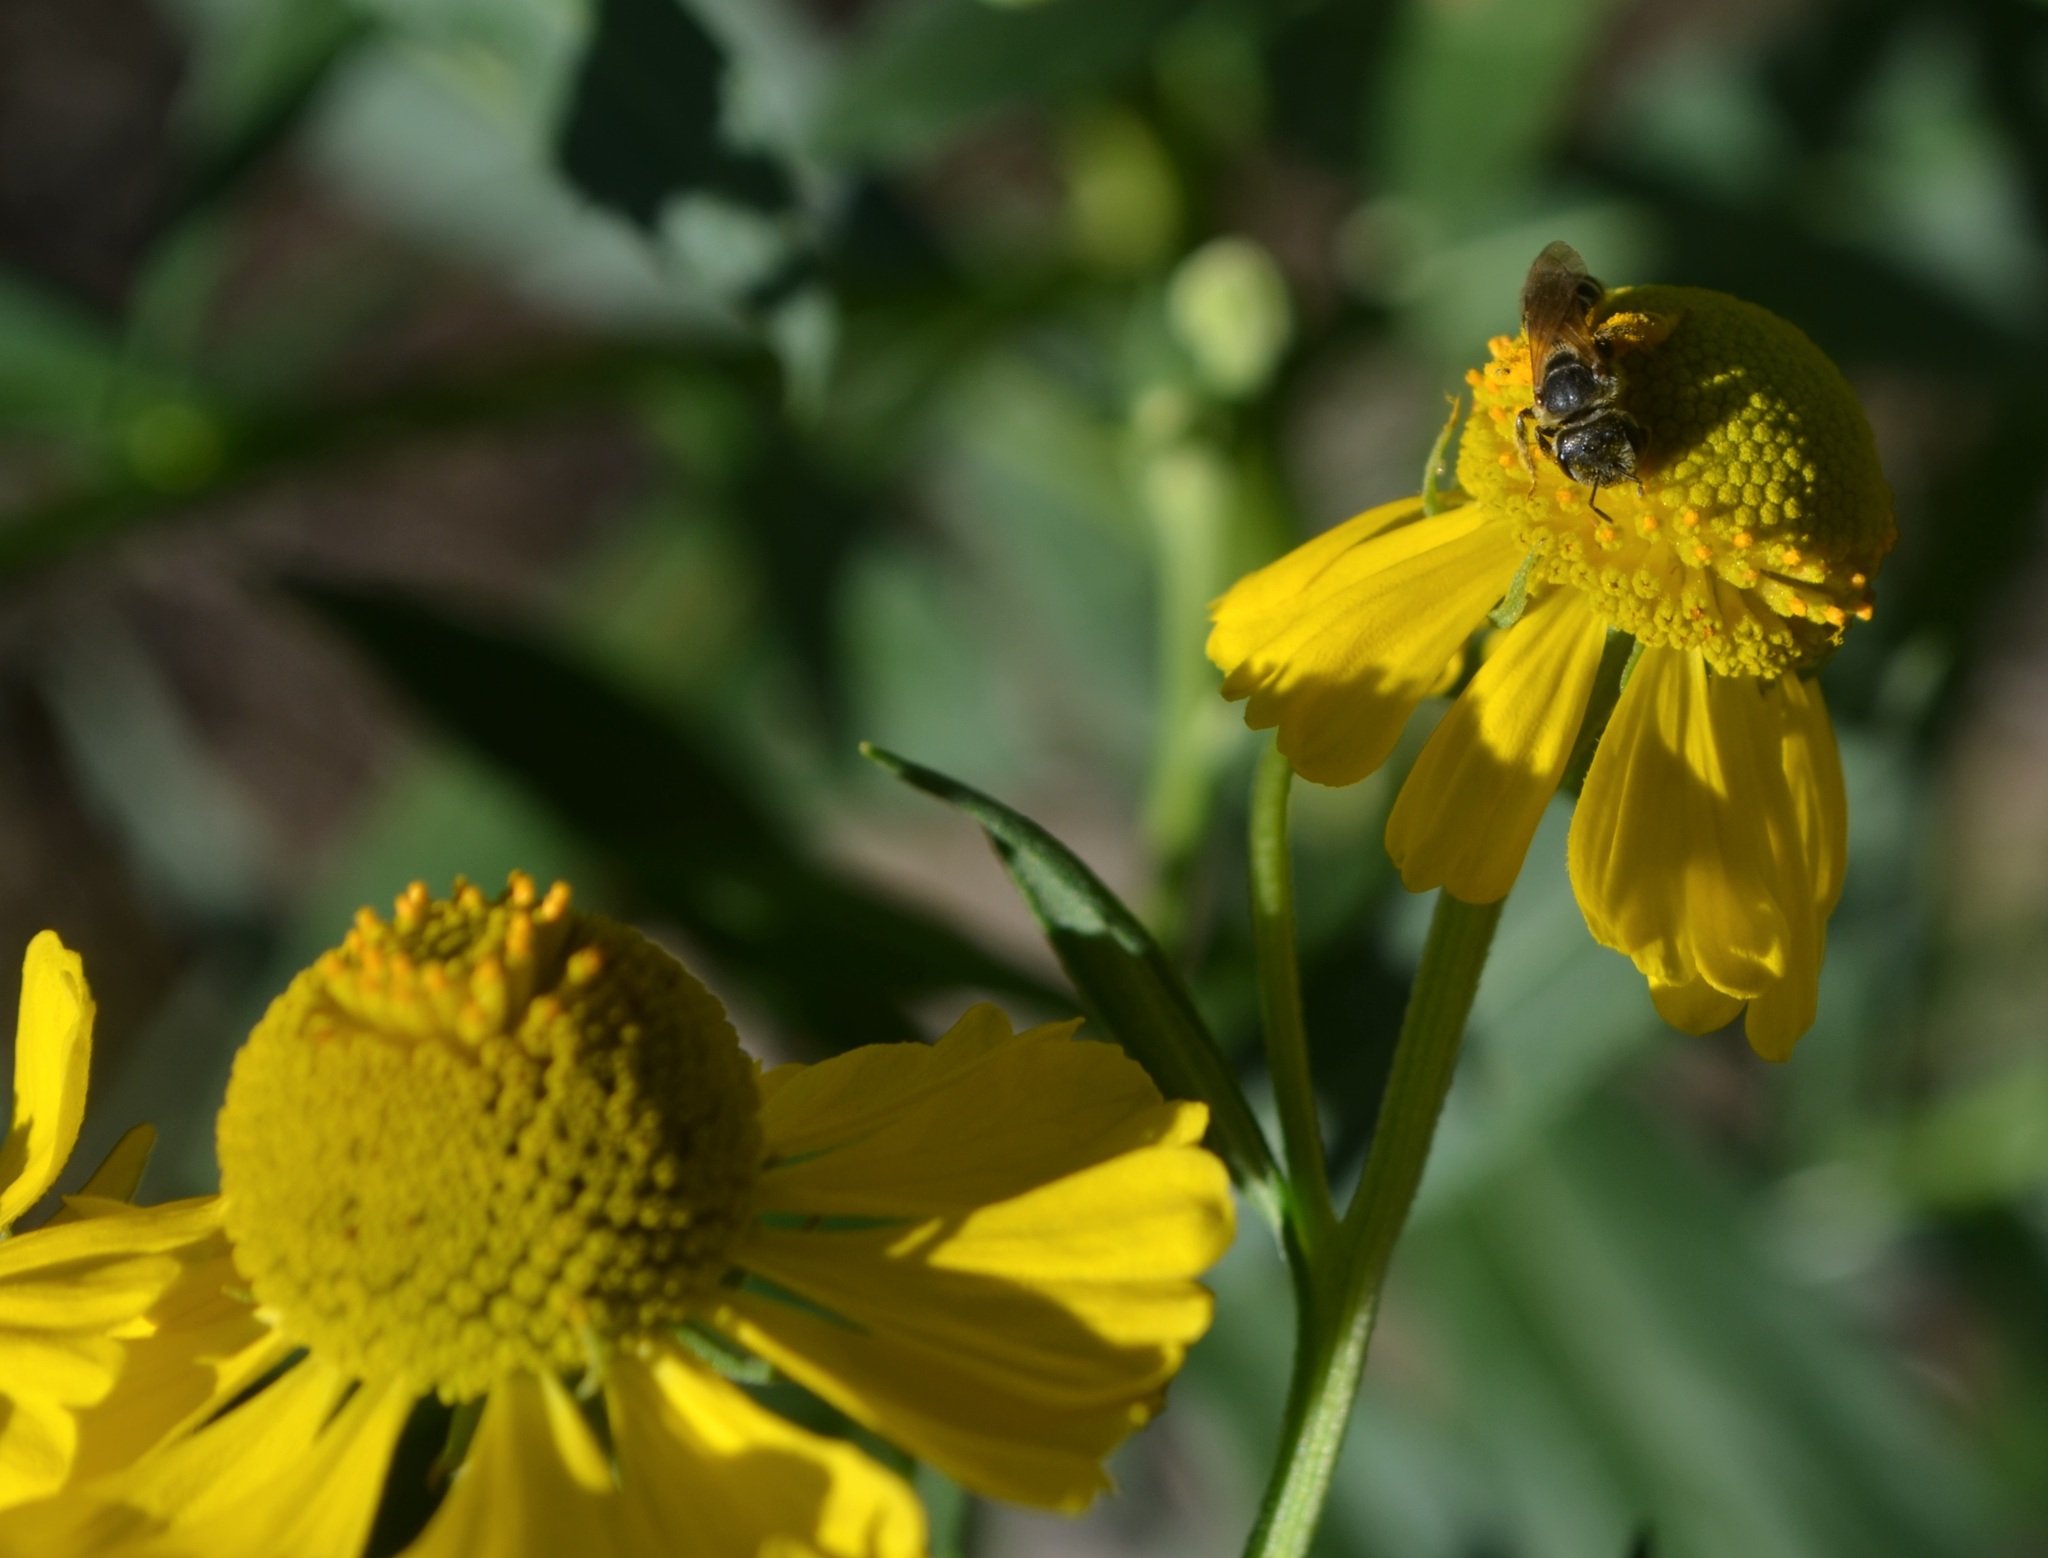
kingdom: Plantae
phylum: Tracheophyta
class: Magnoliopsida
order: Asterales
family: Asteraceae
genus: Helenium
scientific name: Helenium autumnale
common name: Sneezeweed
